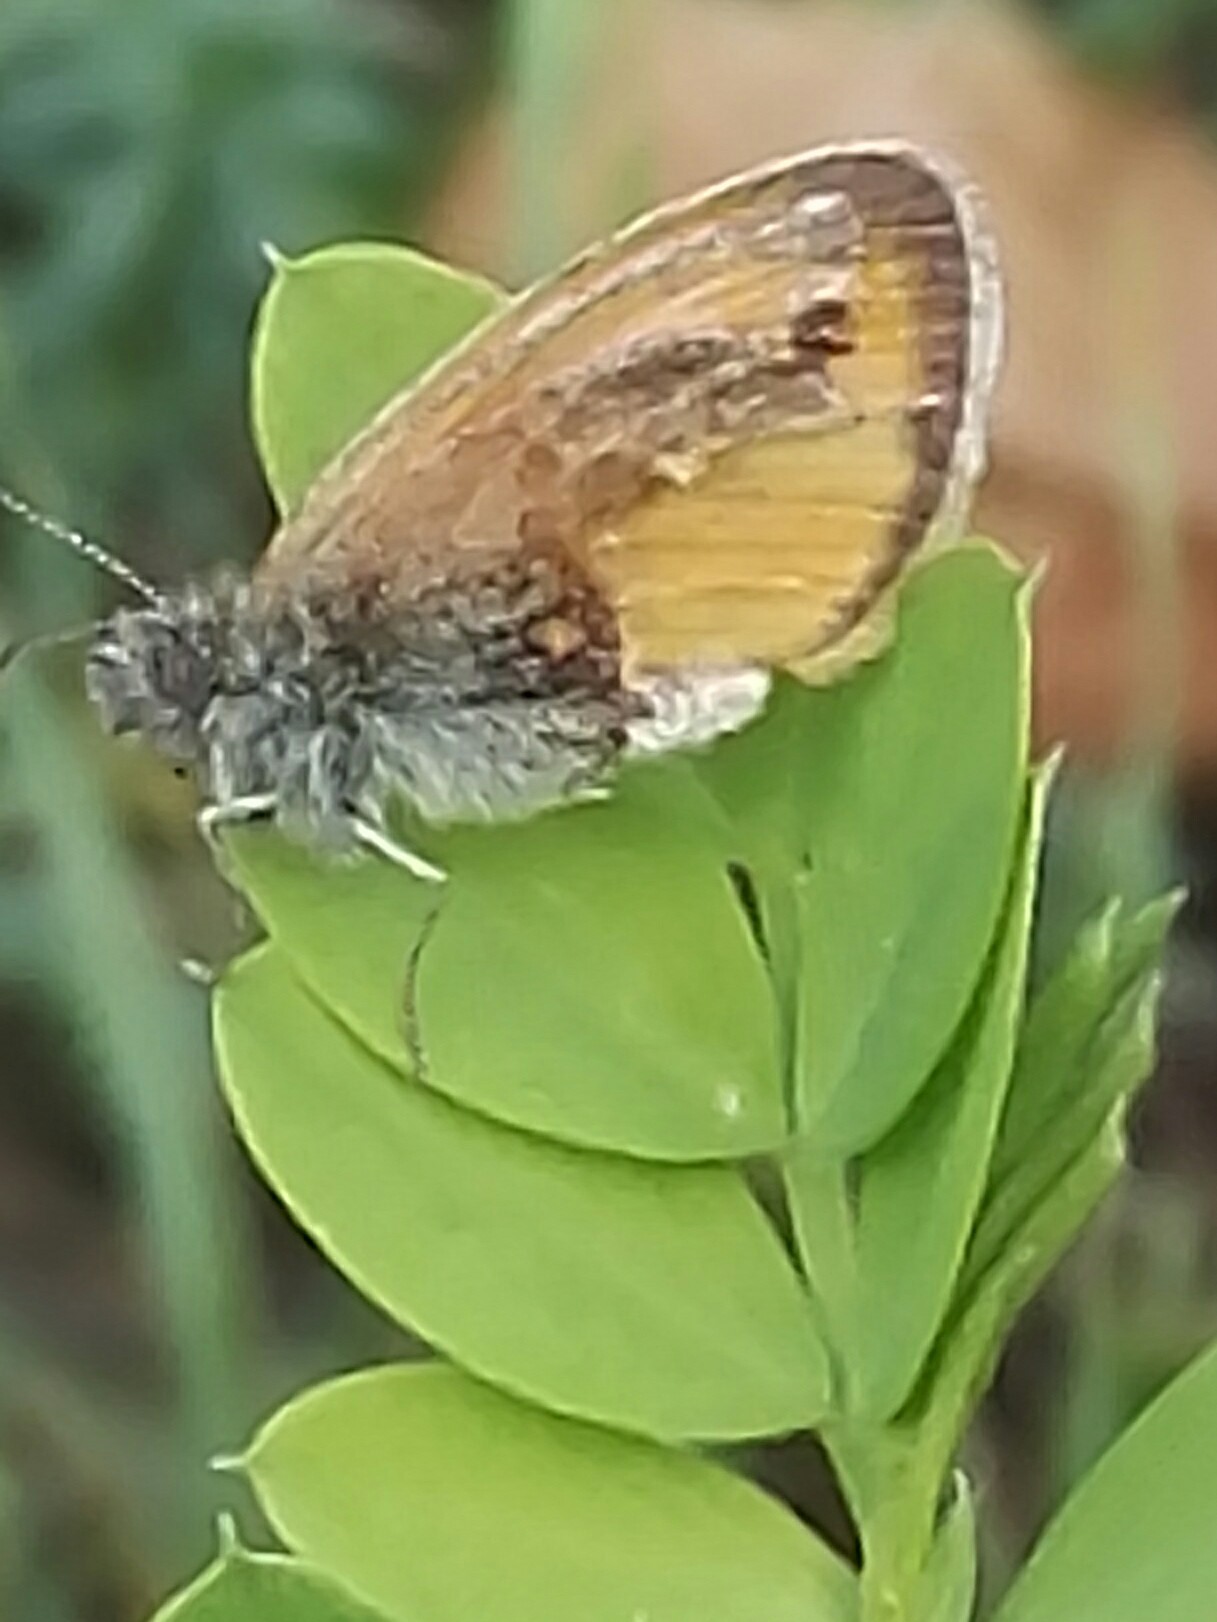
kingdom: Animalia
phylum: Arthropoda
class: Insecta
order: Lepidoptera
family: Nymphalidae
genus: Coenonympha
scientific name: Coenonympha pamphilus
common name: Small heath
